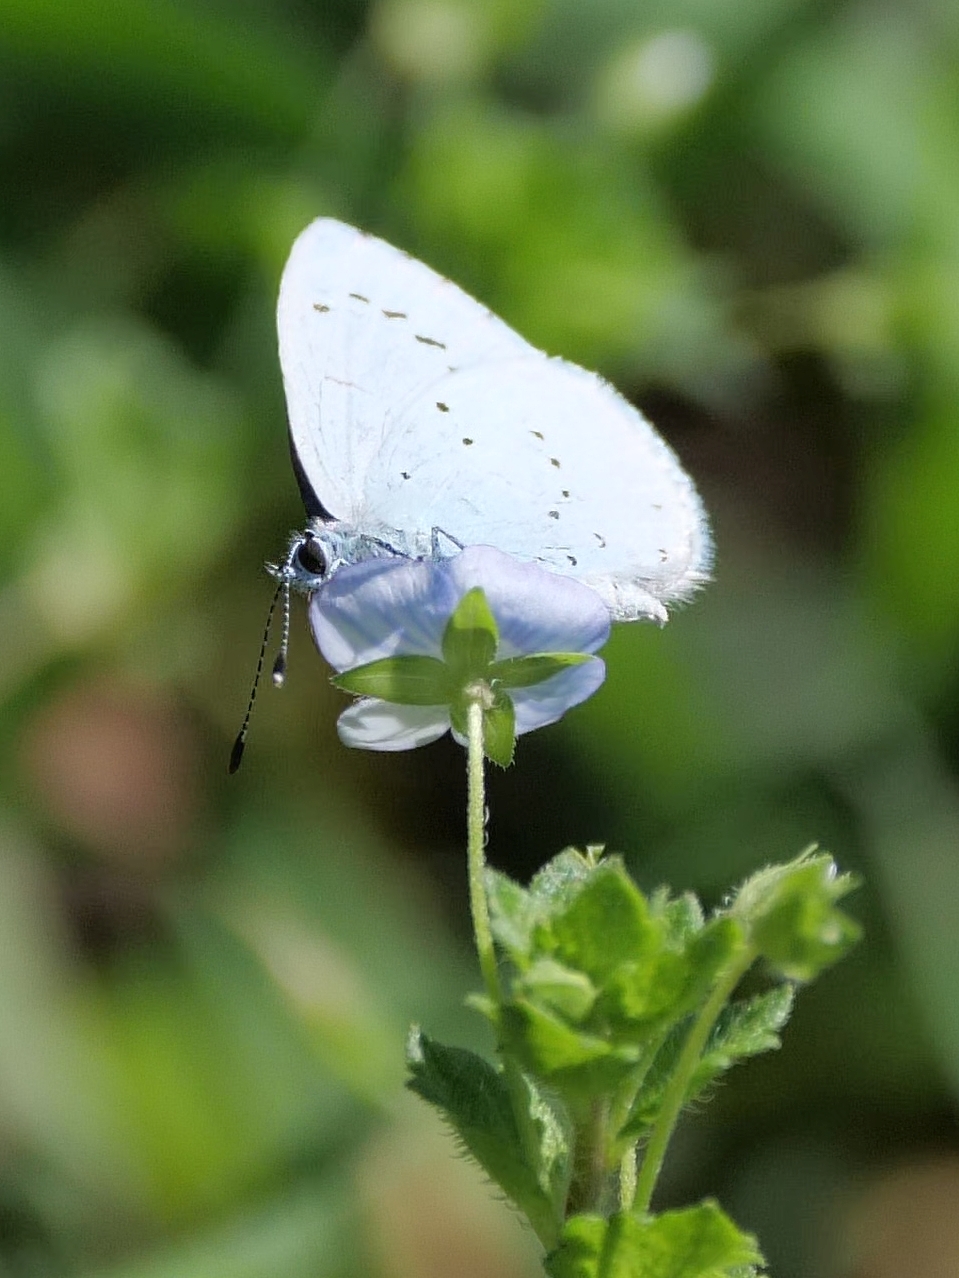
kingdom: Animalia
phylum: Arthropoda
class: Insecta
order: Lepidoptera
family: Lycaenidae
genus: Celastrina
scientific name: Celastrina argiolus
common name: Holly blue
